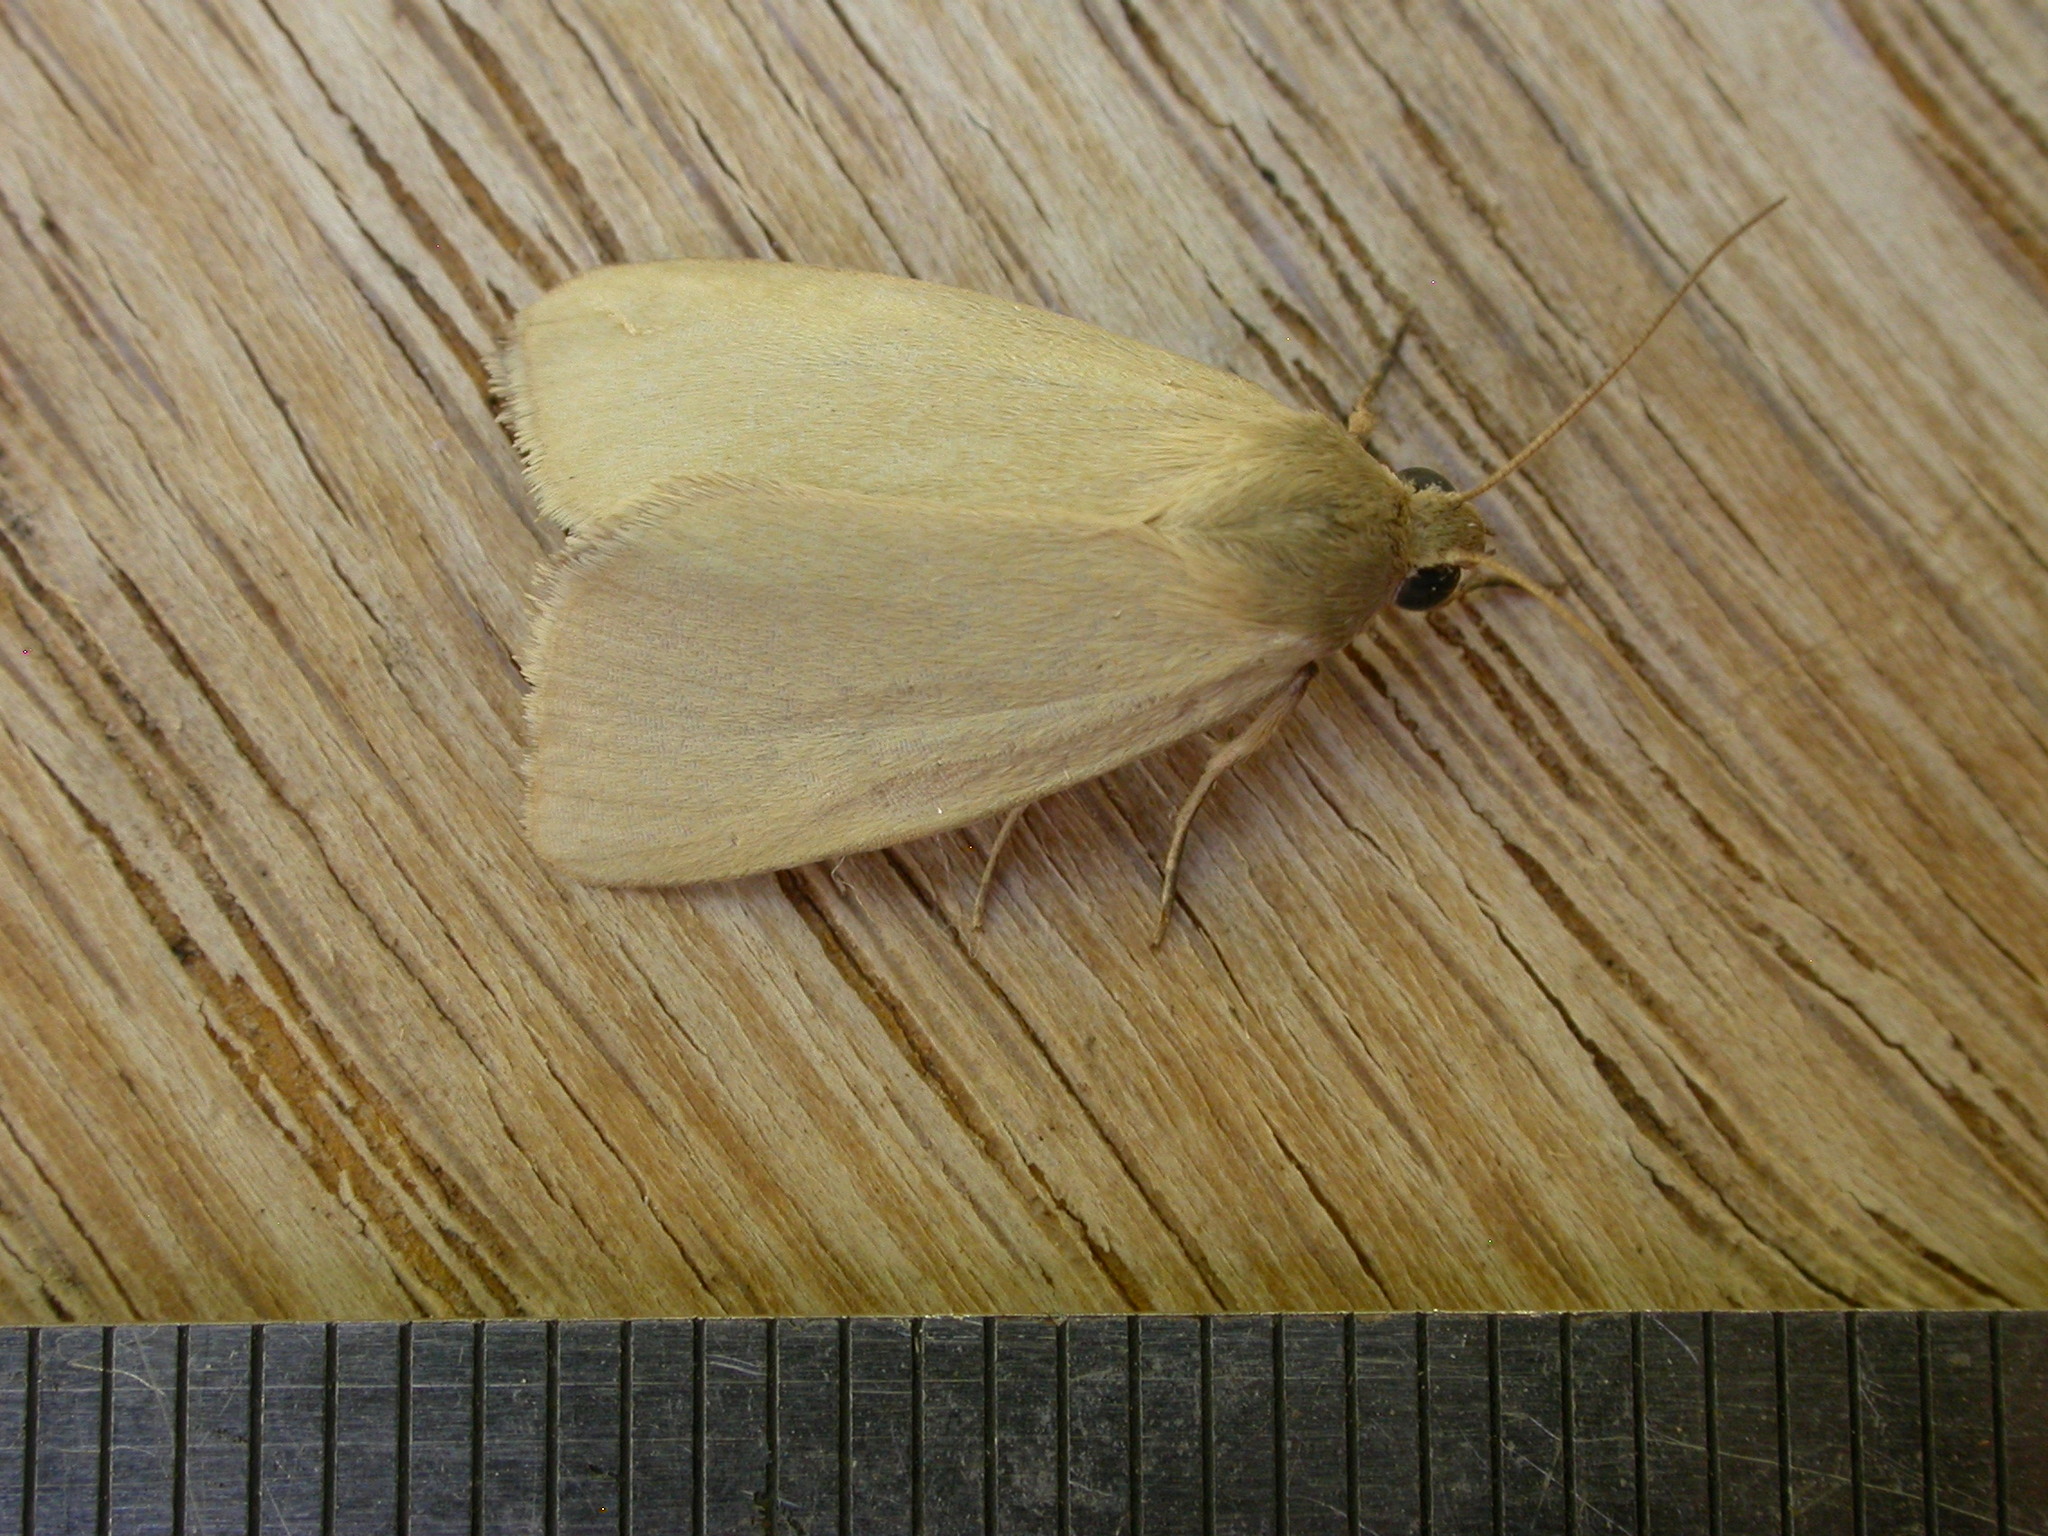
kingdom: Animalia
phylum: Arthropoda
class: Insecta
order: Lepidoptera
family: Noctuidae
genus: Heliocheilus
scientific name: Heliocheilus moribunda
